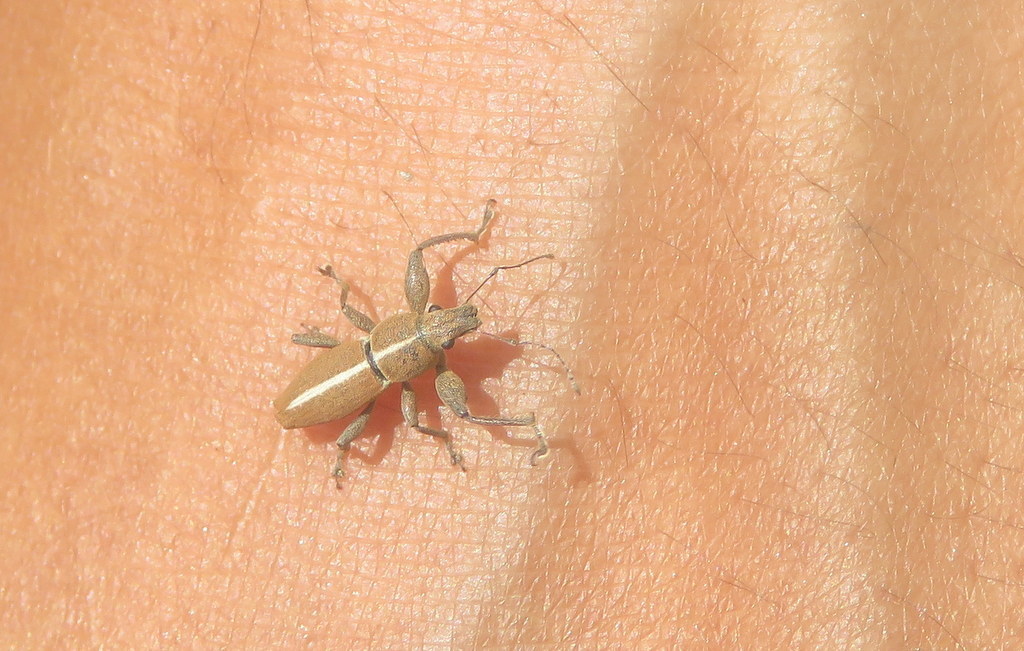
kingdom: Animalia
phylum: Arthropoda
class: Insecta
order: Coleoptera
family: Curculionidae
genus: Naupactus
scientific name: Naupactus dissimulator
